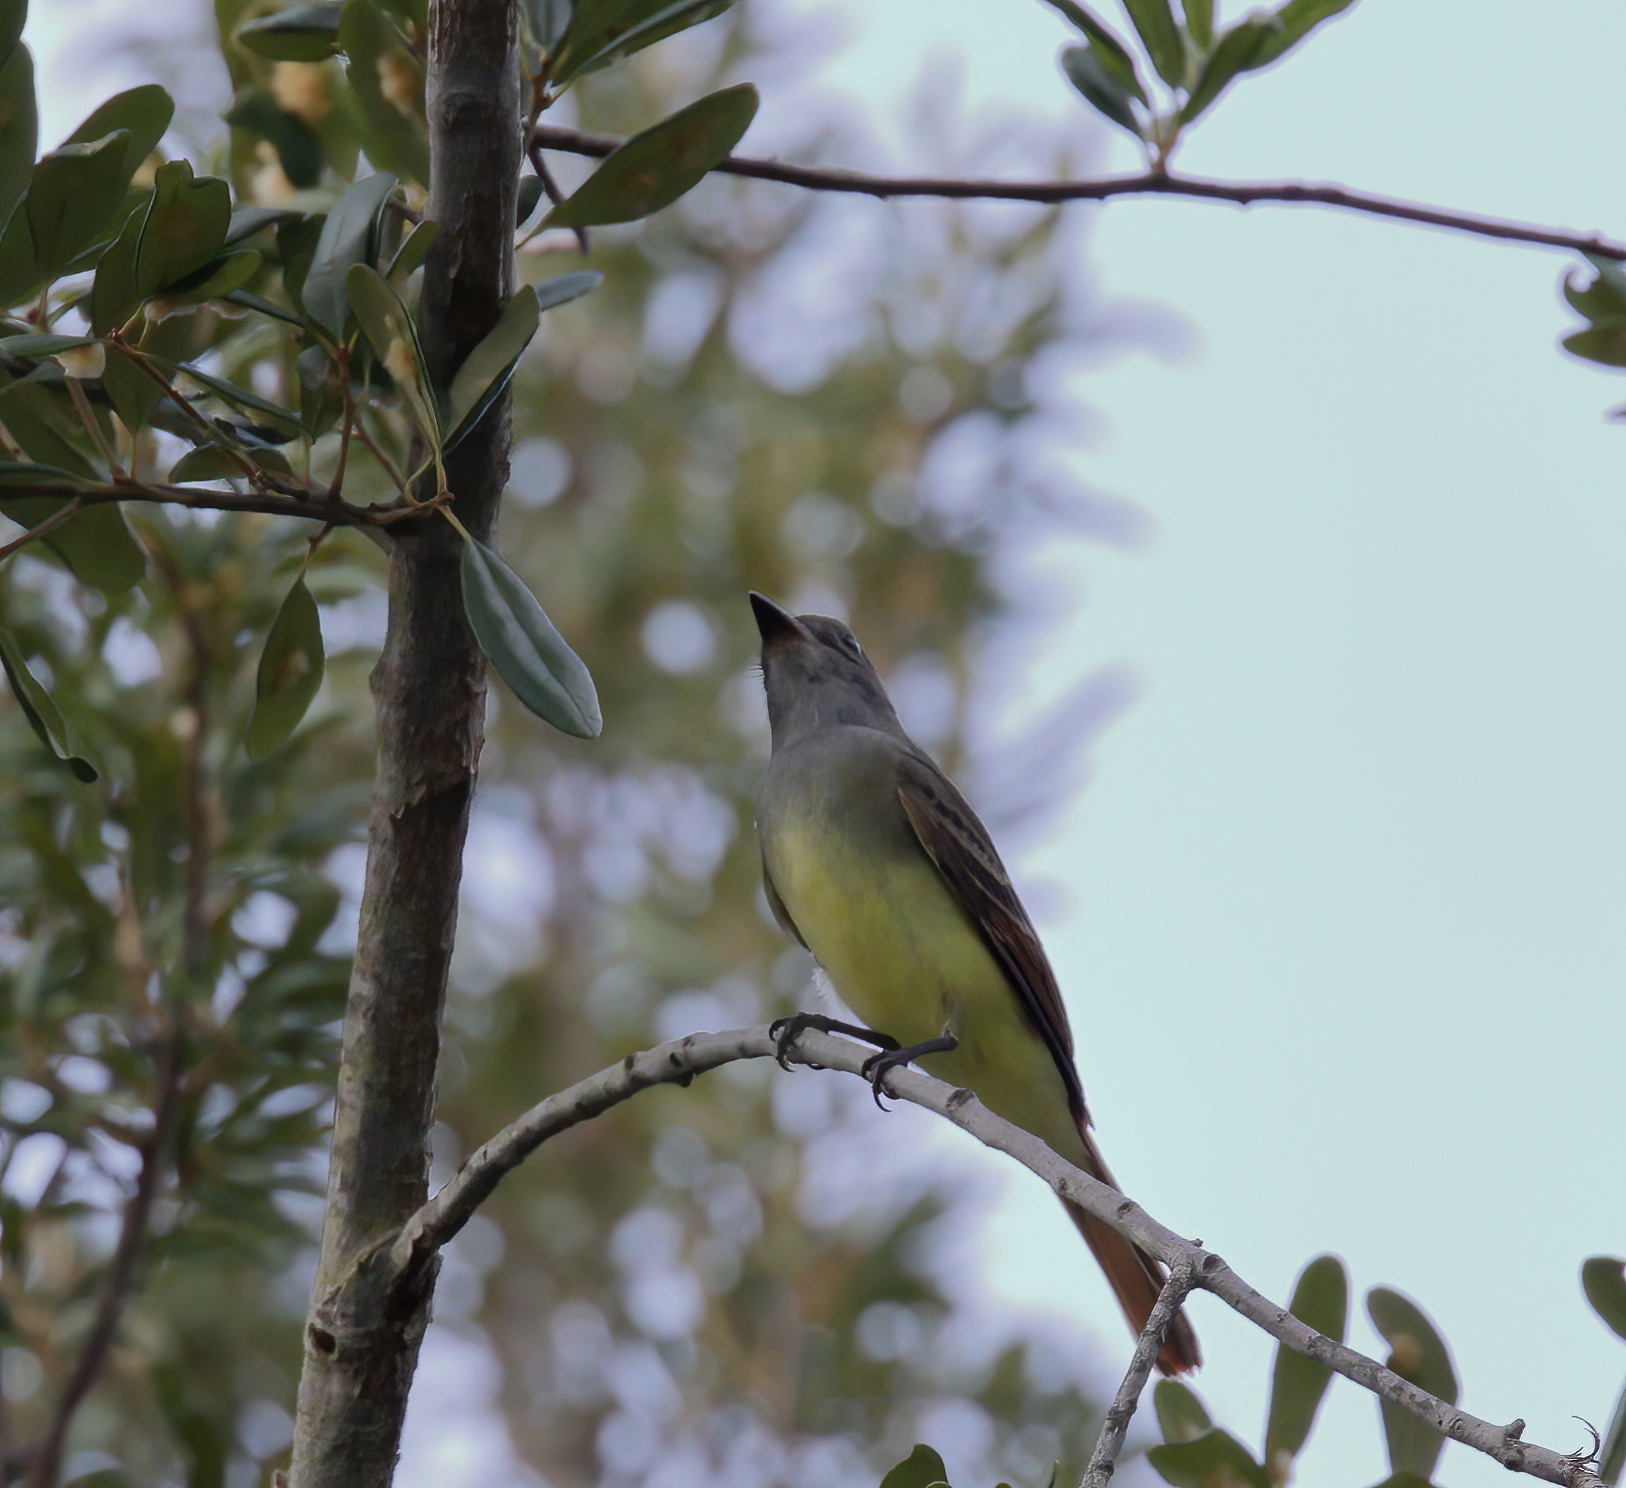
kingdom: Animalia
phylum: Chordata
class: Aves
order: Passeriformes
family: Tyrannidae
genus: Myiarchus
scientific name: Myiarchus crinitus
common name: Great crested flycatcher
